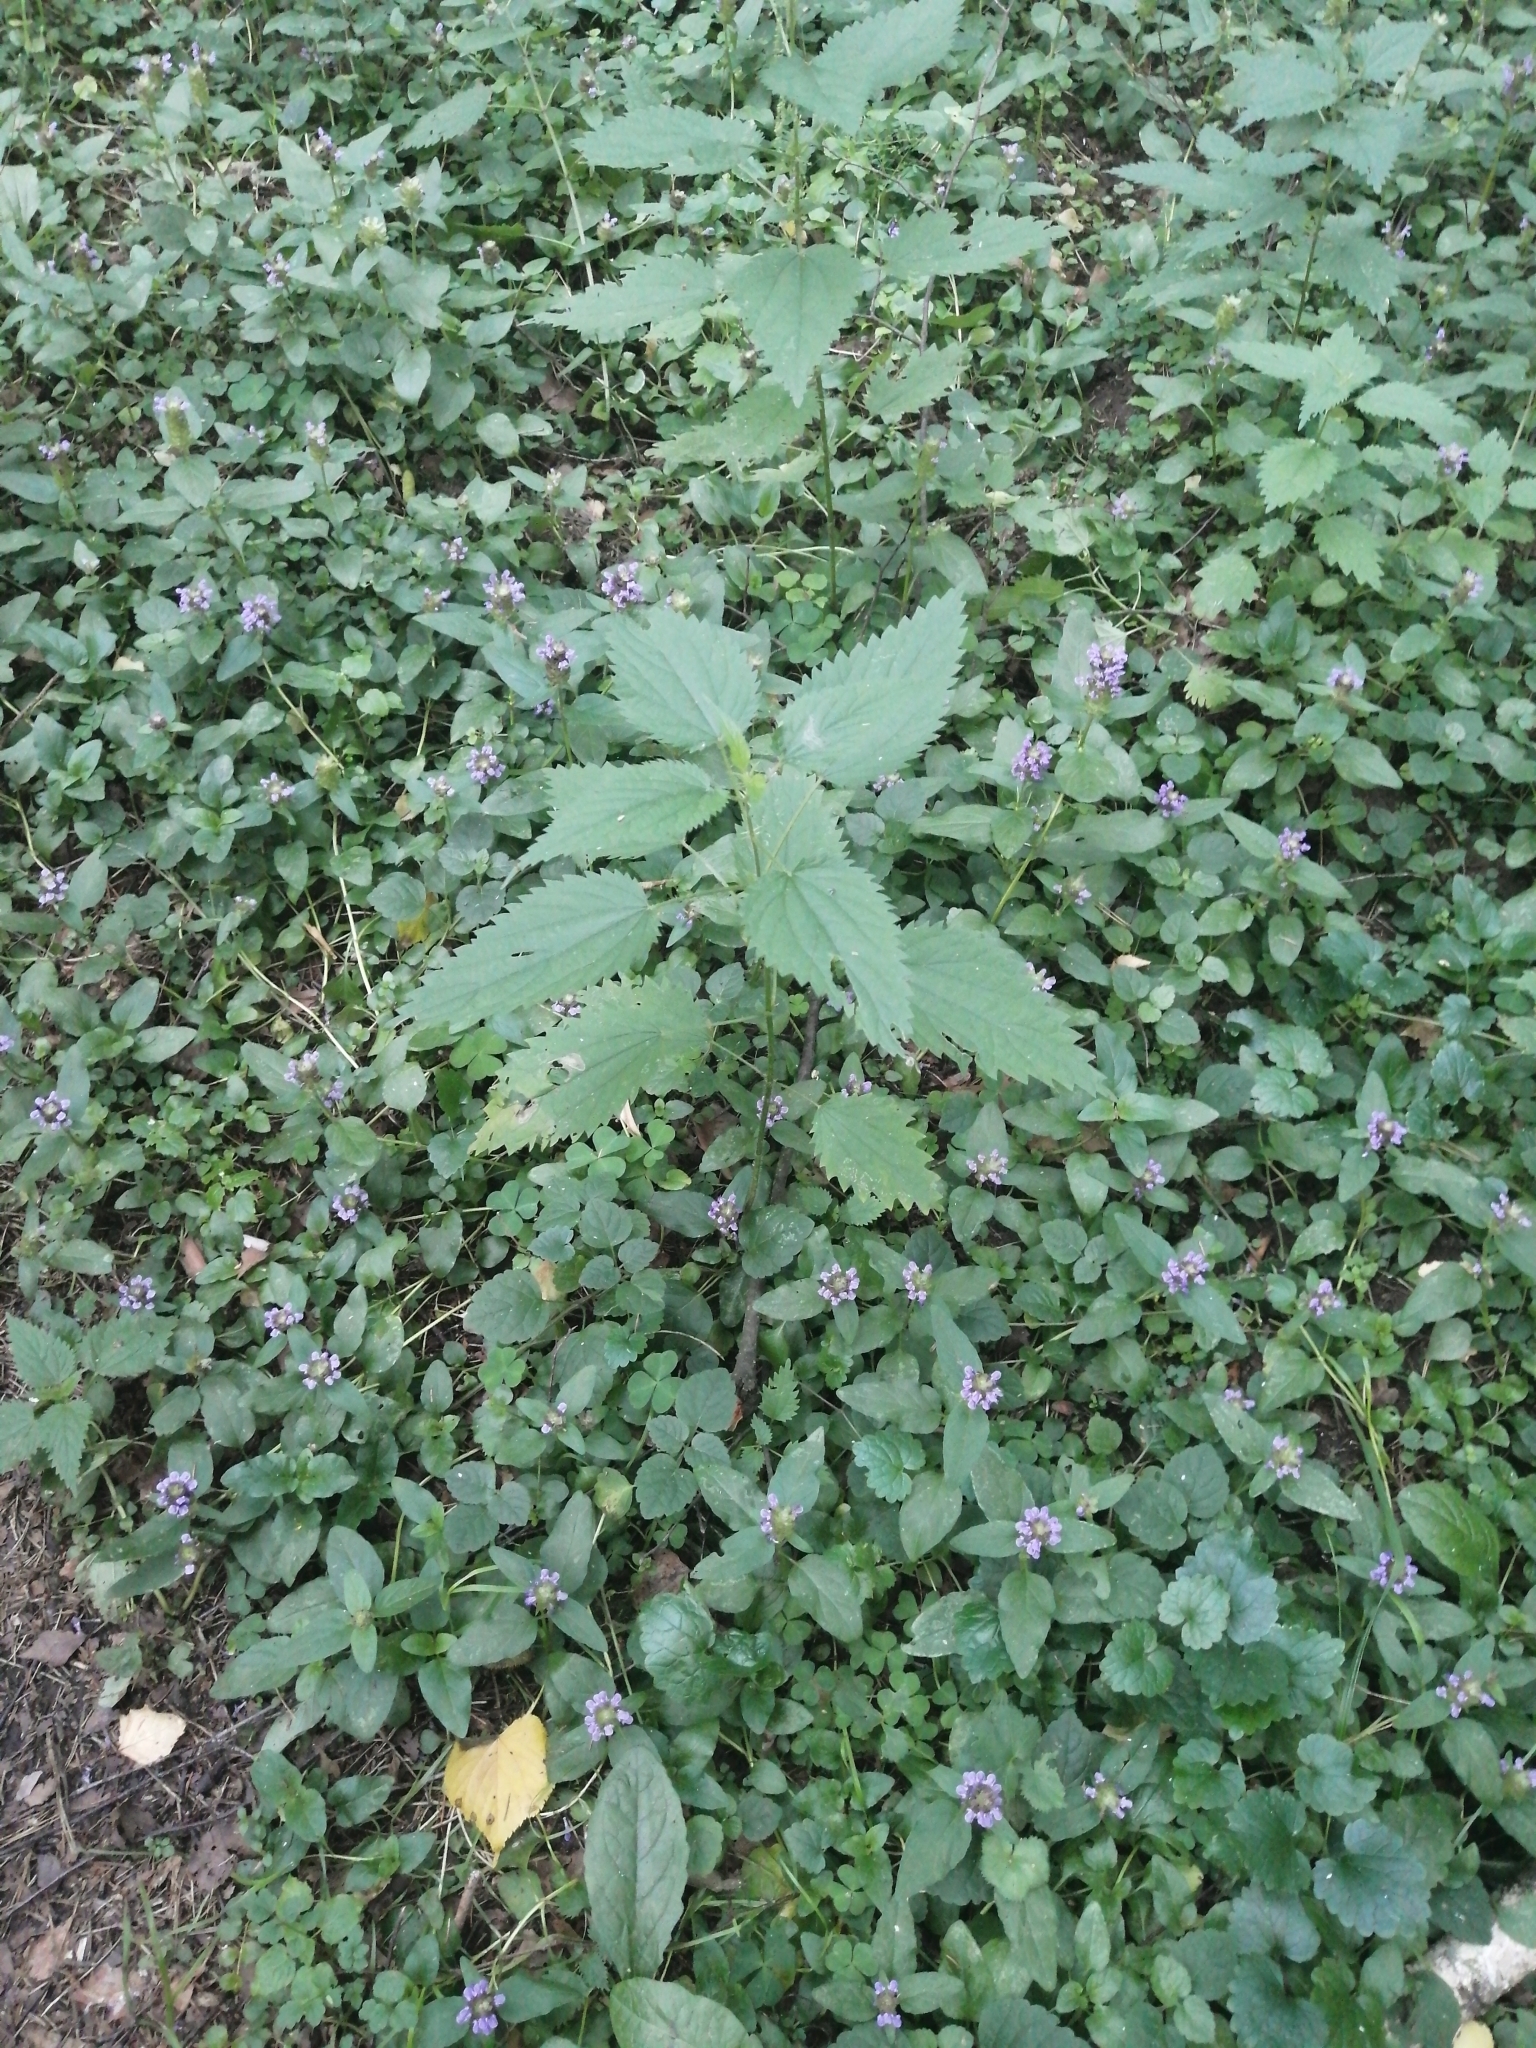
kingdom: Plantae
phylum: Tracheophyta
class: Magnoliopsida
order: Lamiales
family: Lamiaceae
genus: Prunella
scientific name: Prunella vulgaris
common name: Heal-all
